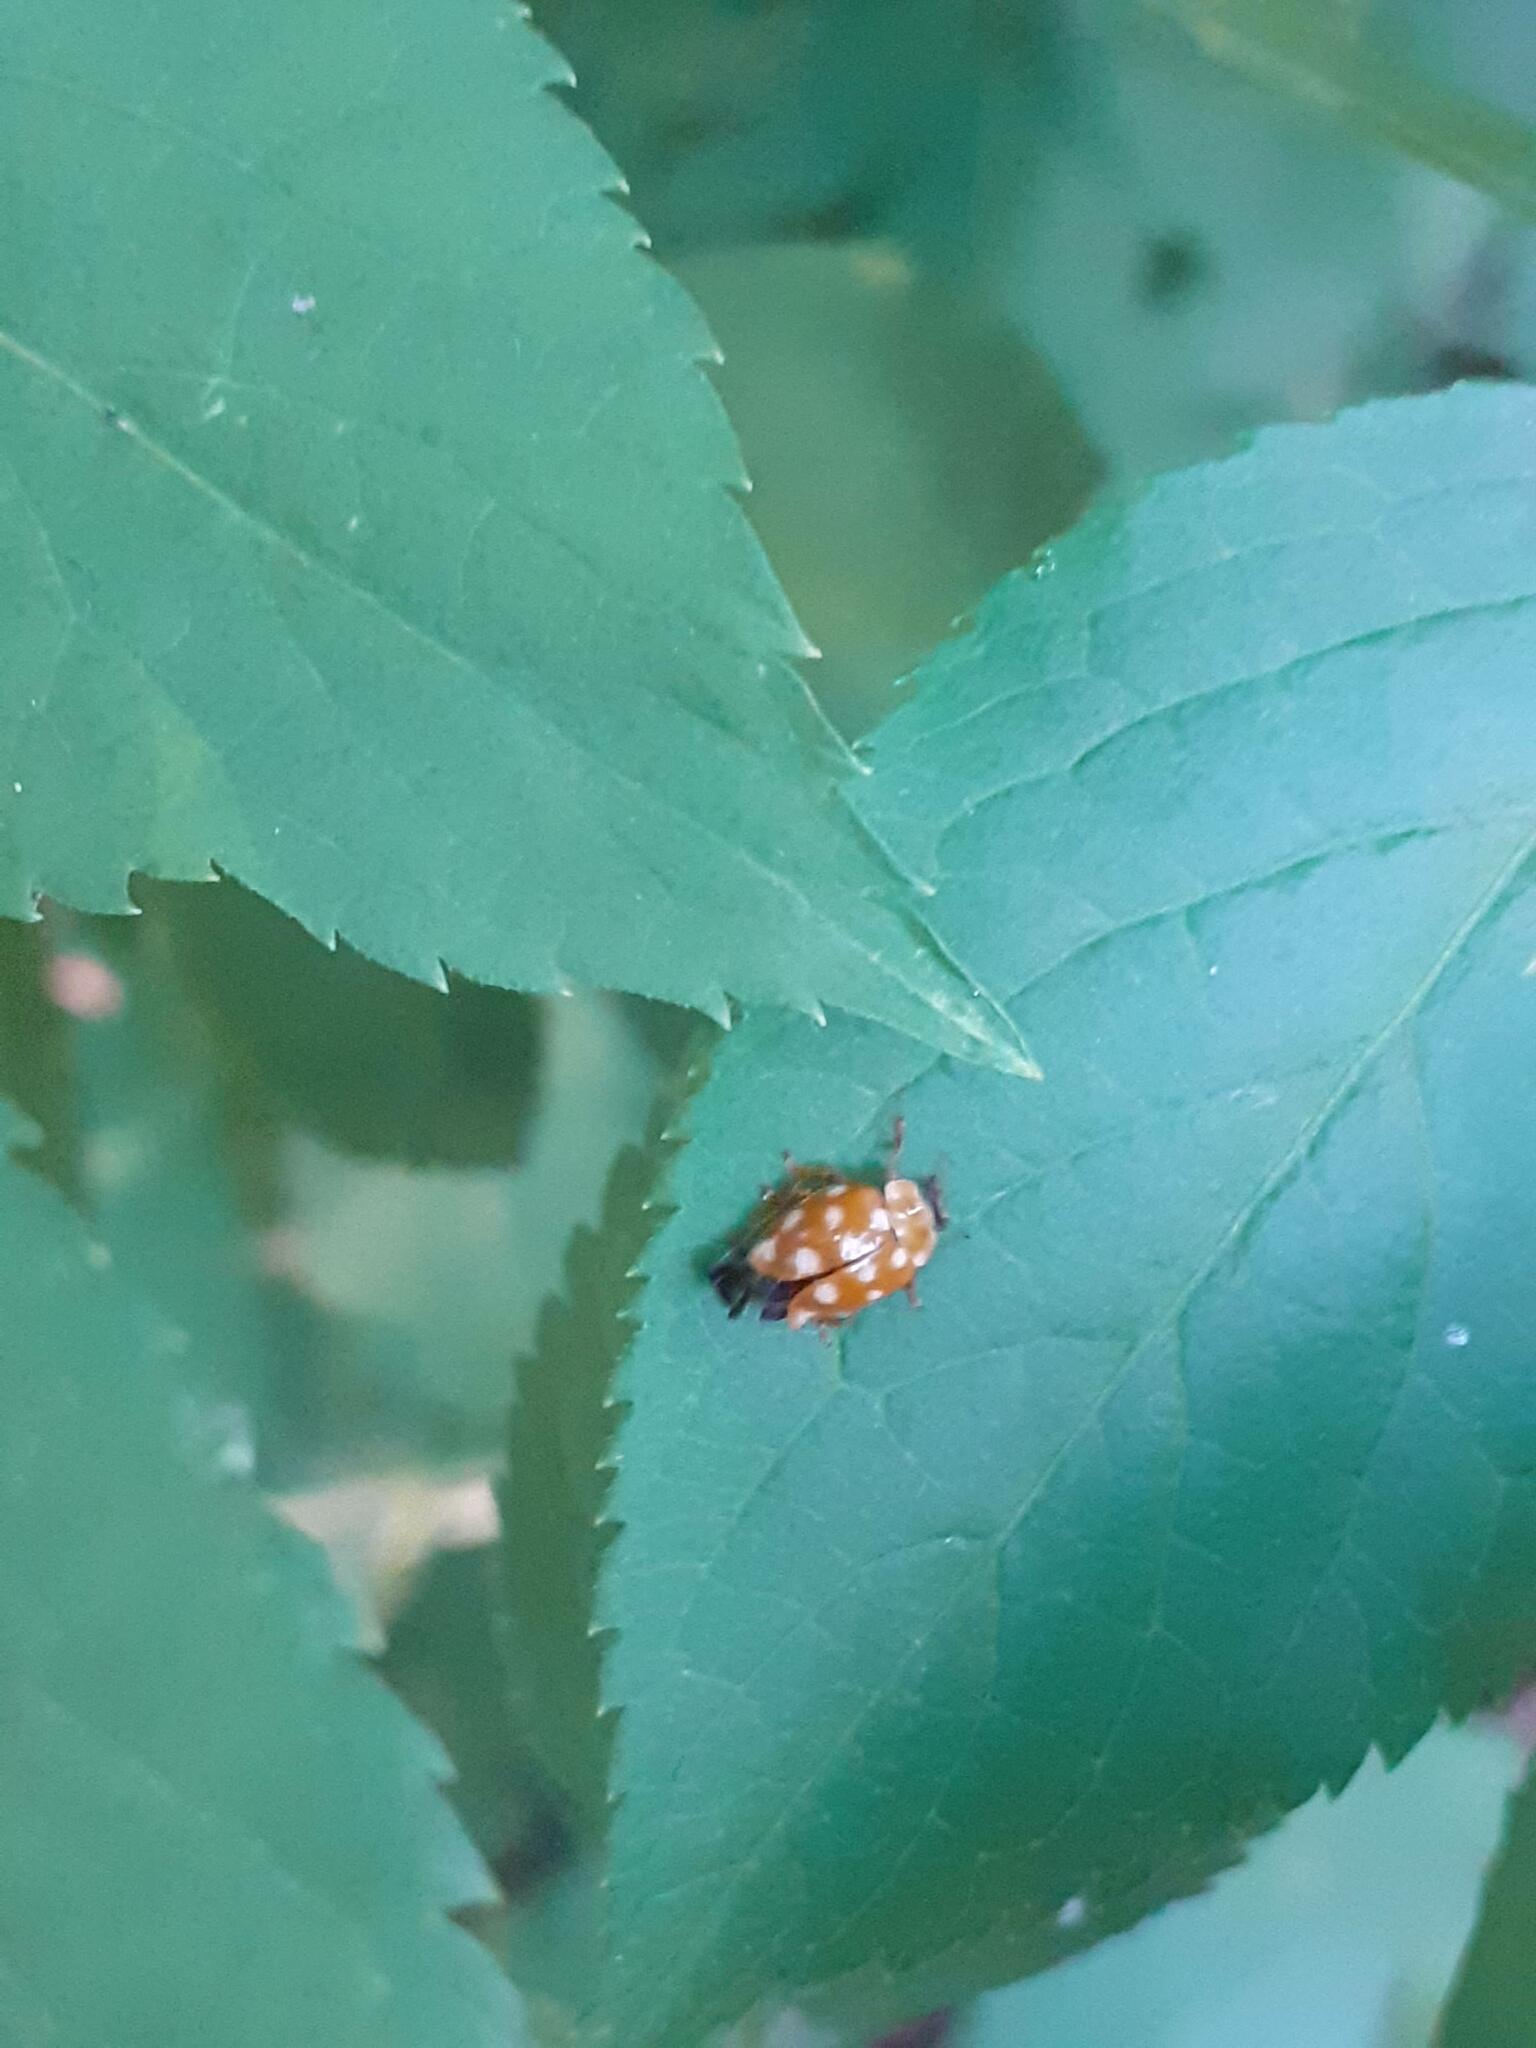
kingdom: Animalia
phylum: Arthropoda
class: Insecta
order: Coleoptera
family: Coccinellidae
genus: Calvia
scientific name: Calvia quatuordecimguttata
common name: Cream-spot ladybird
